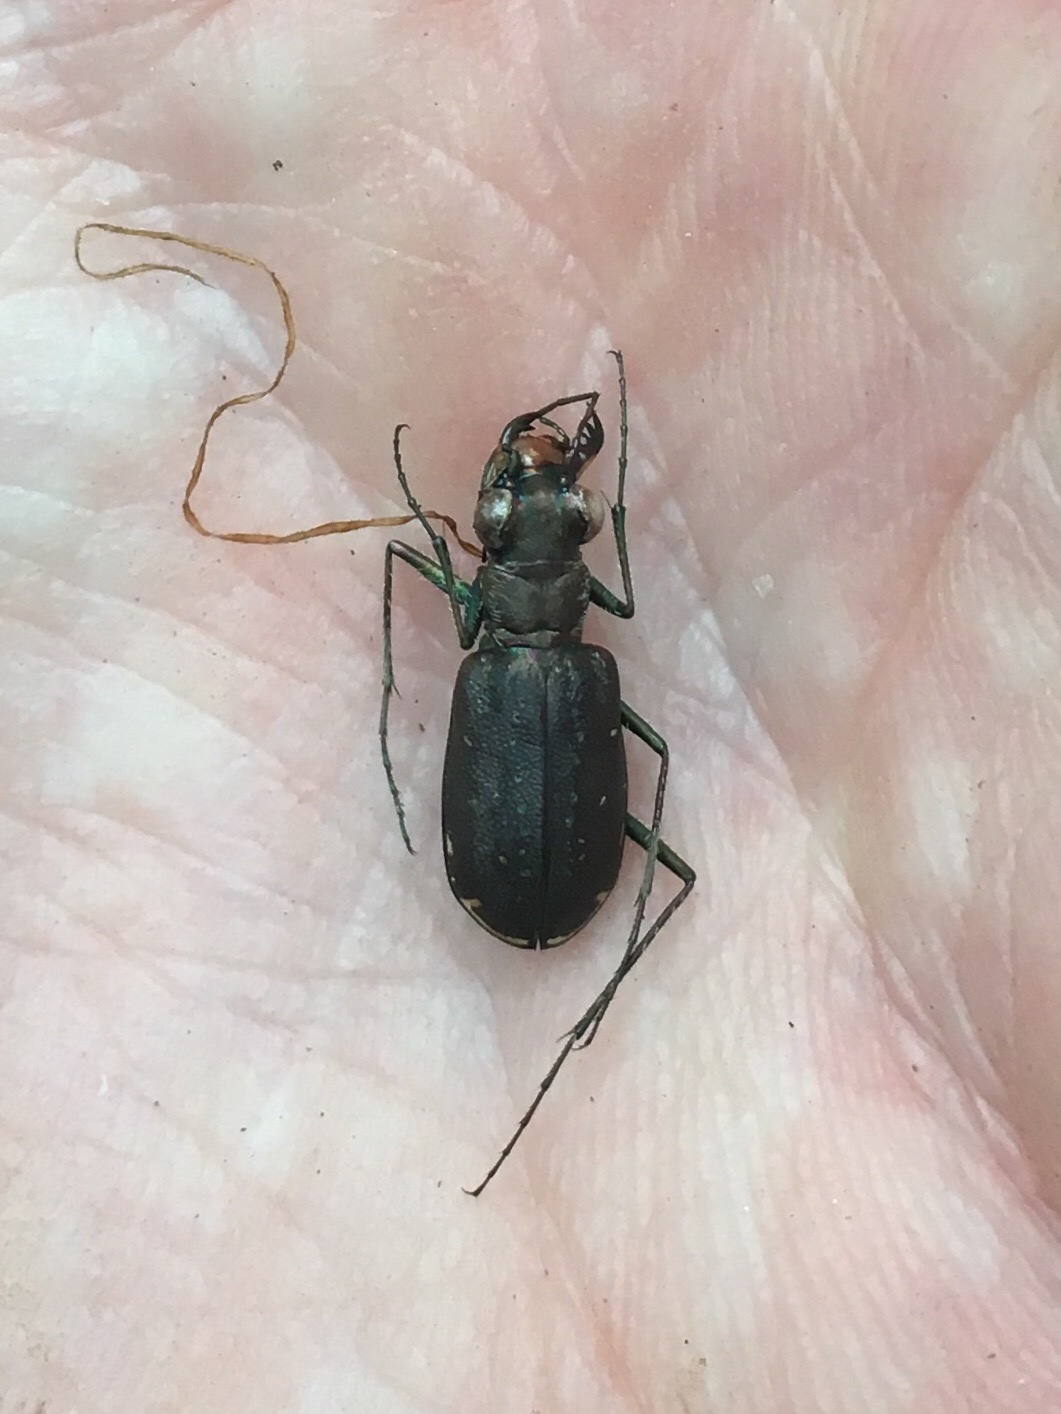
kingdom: Animalia
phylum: Arthropoda
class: Insecta
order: Coleoptera
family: Carabidae
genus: Cicindela
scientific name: Cicindela punctulata
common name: Punctured tiger beetle
